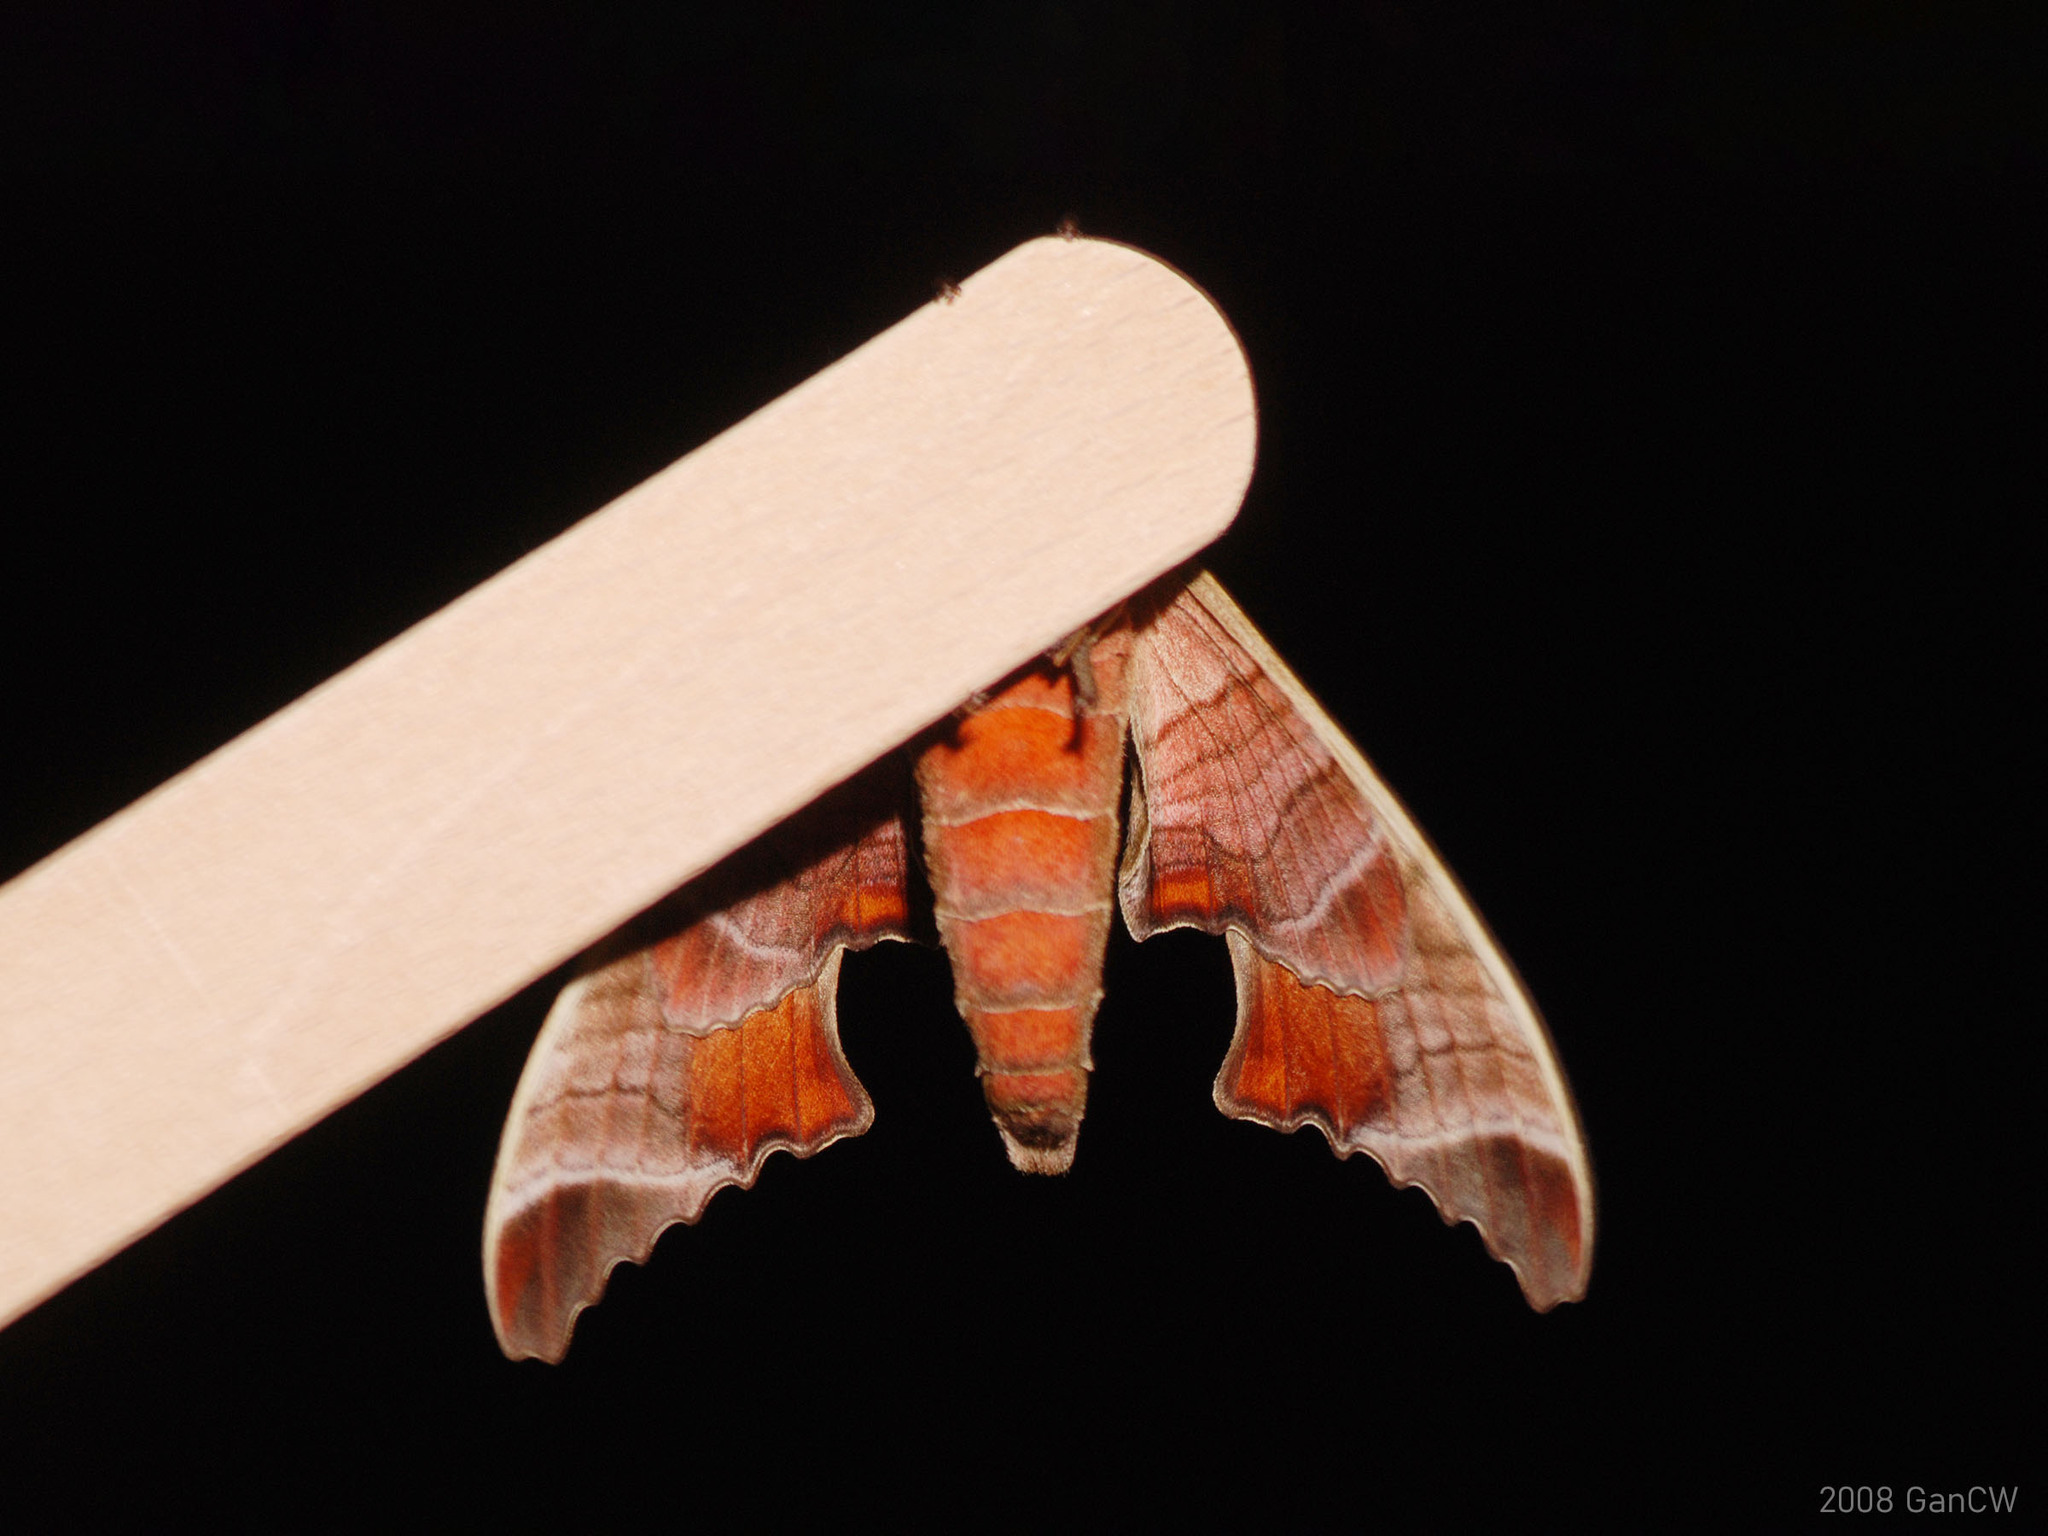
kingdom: Animalia
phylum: Arthropoda
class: Insecta
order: Lepidoptera
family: Sphingidae
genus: Marumba
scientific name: Marumba spectabilis
